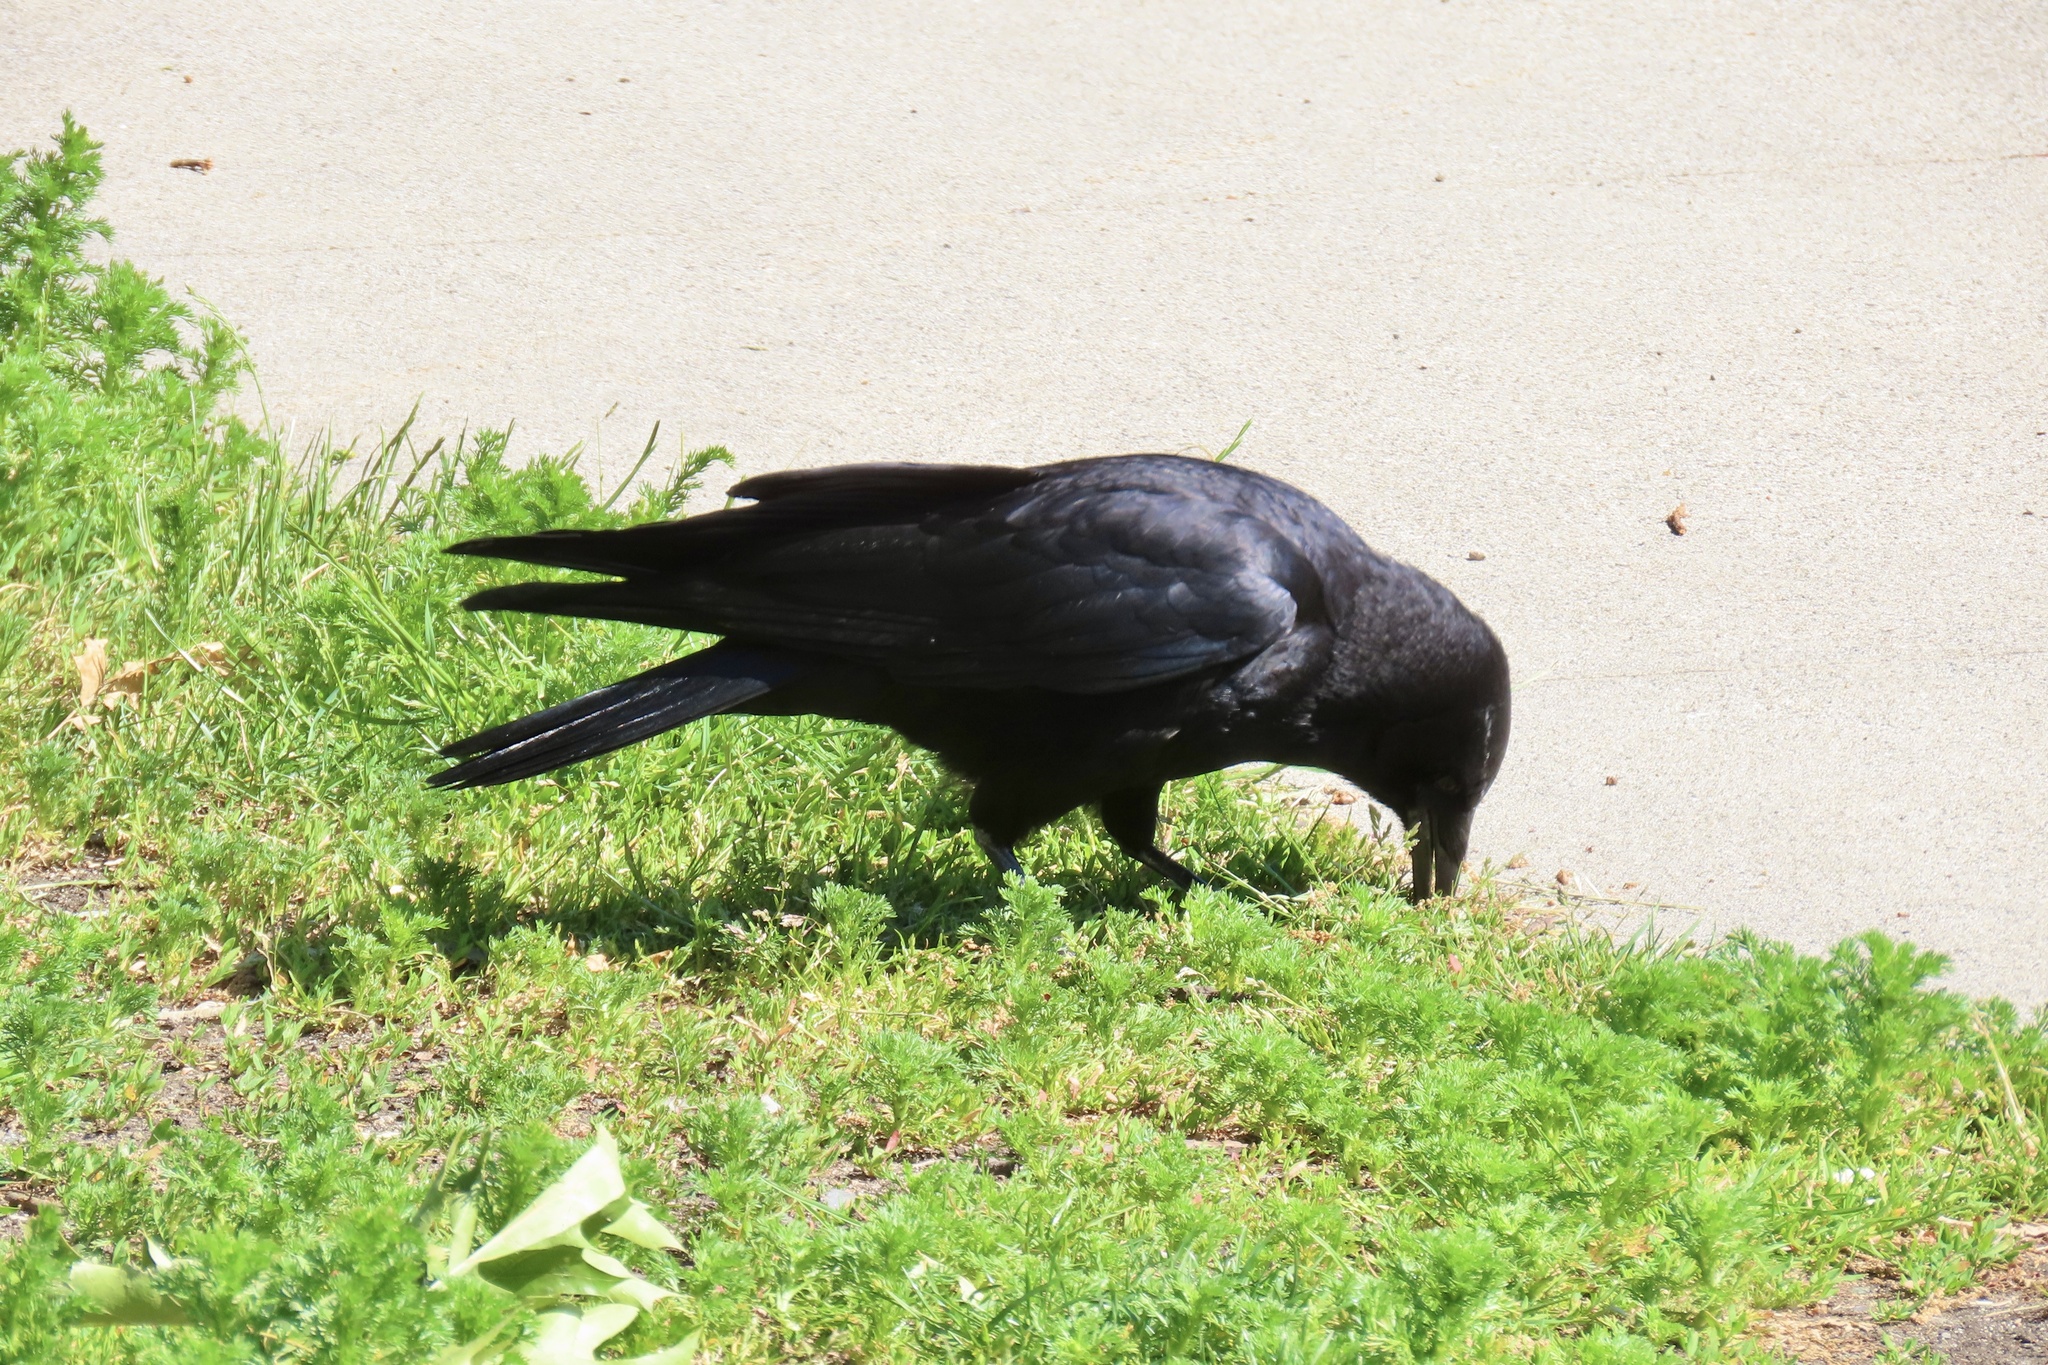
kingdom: Animalia
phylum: Chordata
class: Aves
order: Passeriformes
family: Corvidae
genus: Corvus
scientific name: Corvus brachyrhynchos
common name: American crow
